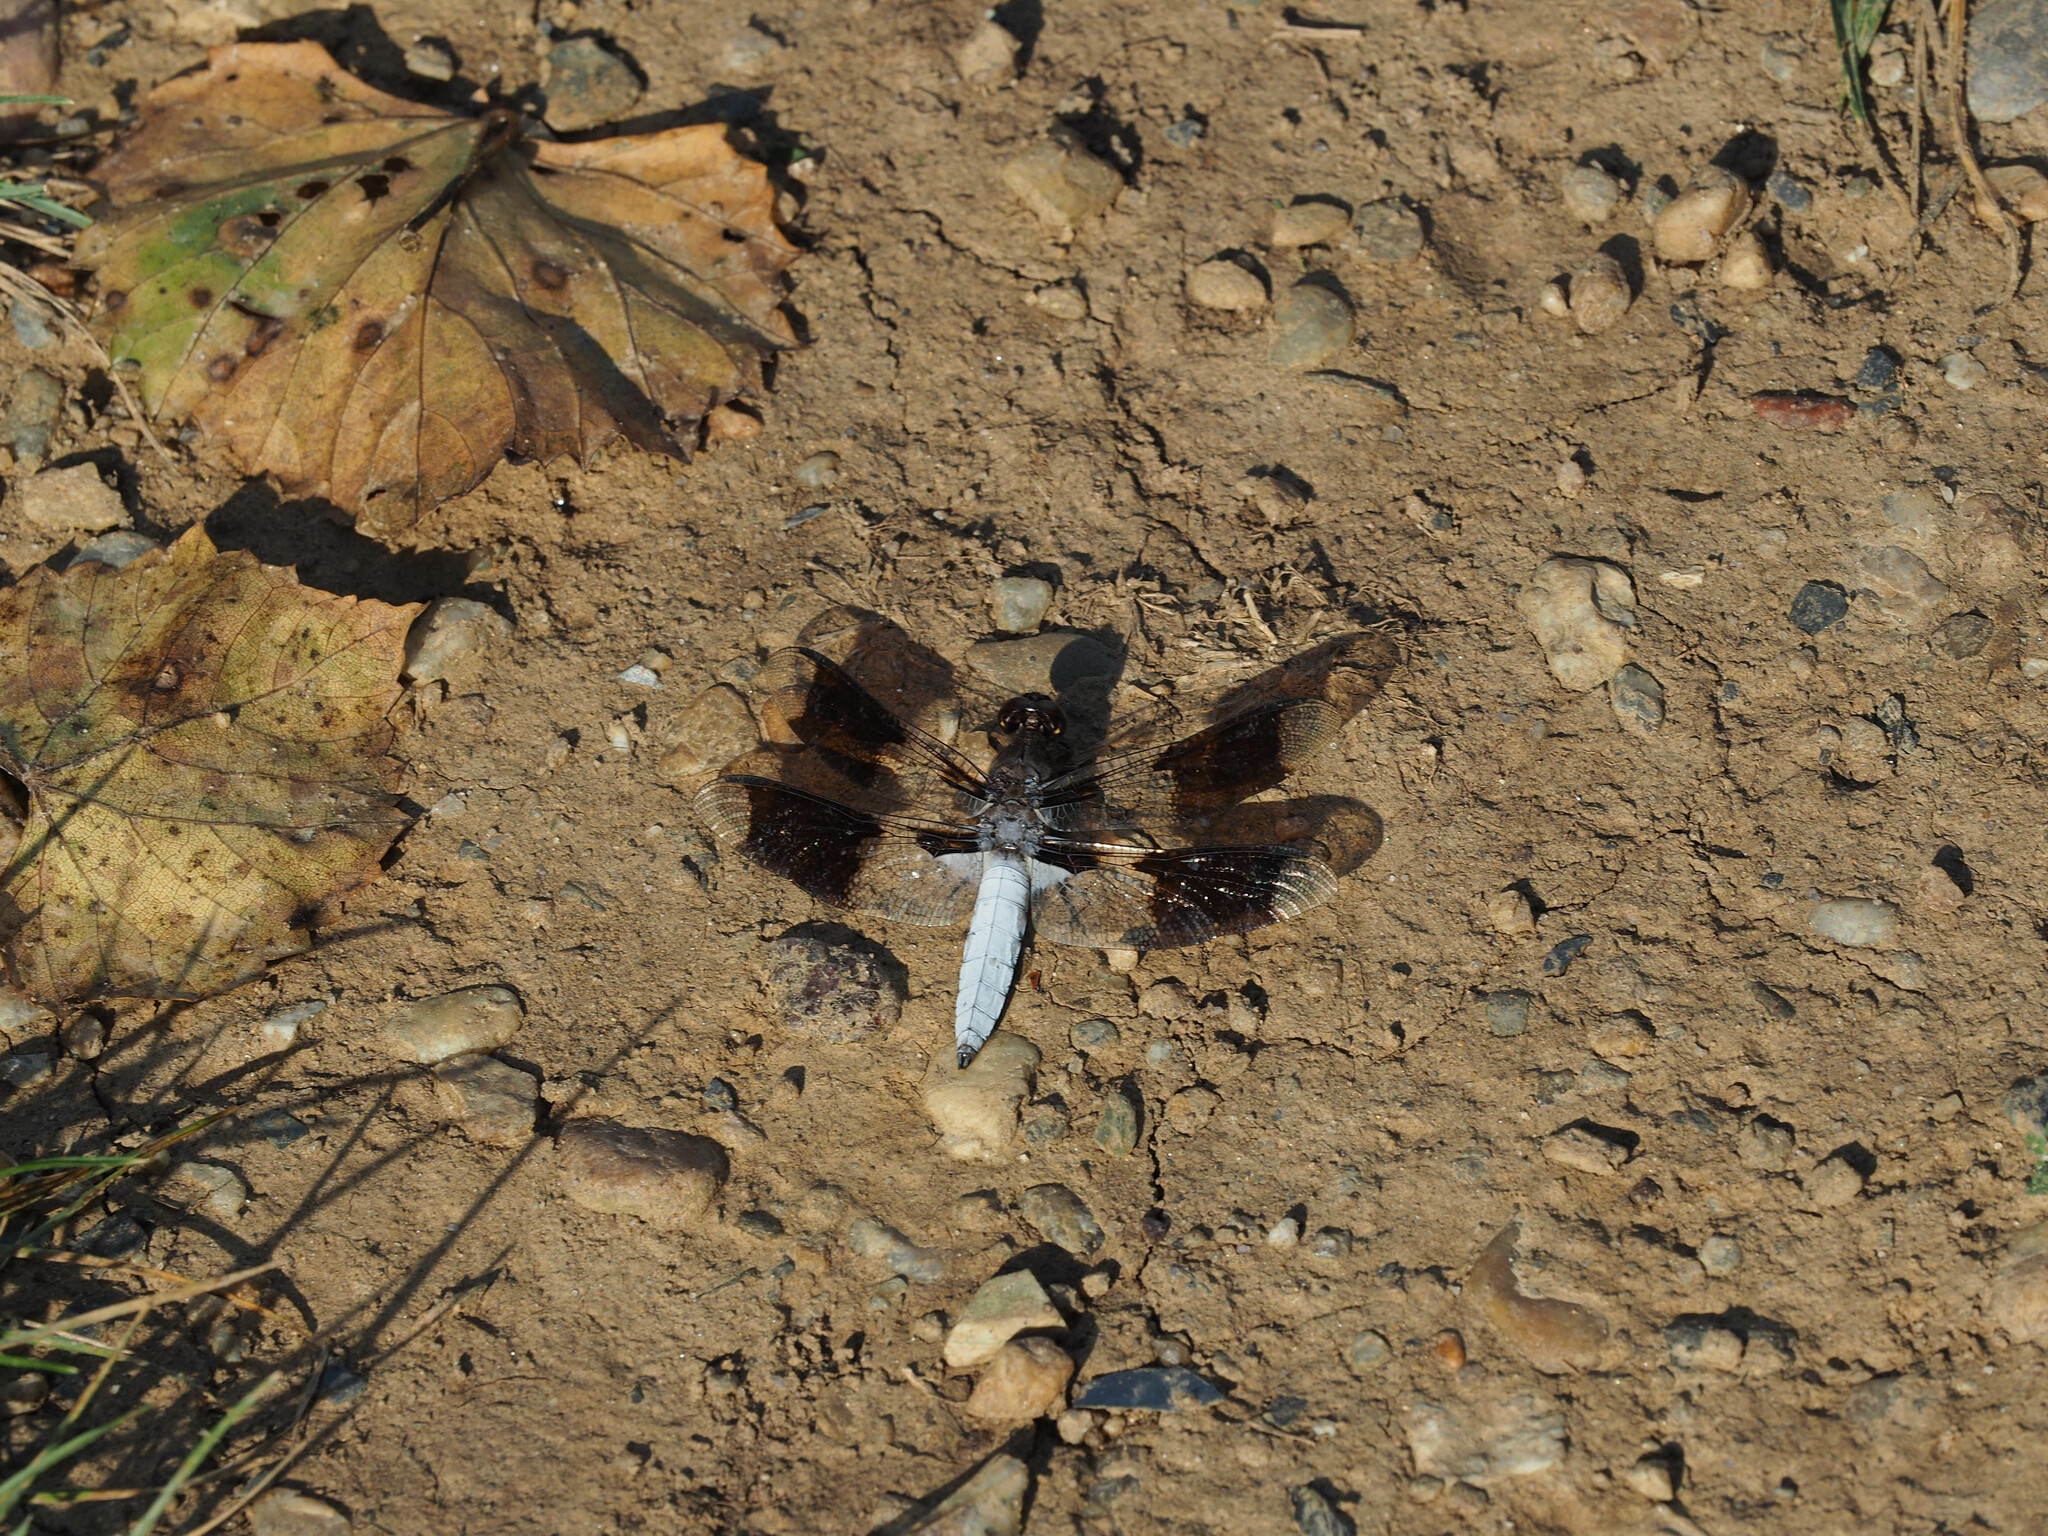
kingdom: Animalia
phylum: Arthropoda
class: Insecta
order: Odonata
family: Libellulidae
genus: Plathemis
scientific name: Plathemis lydia
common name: Common whitetail
